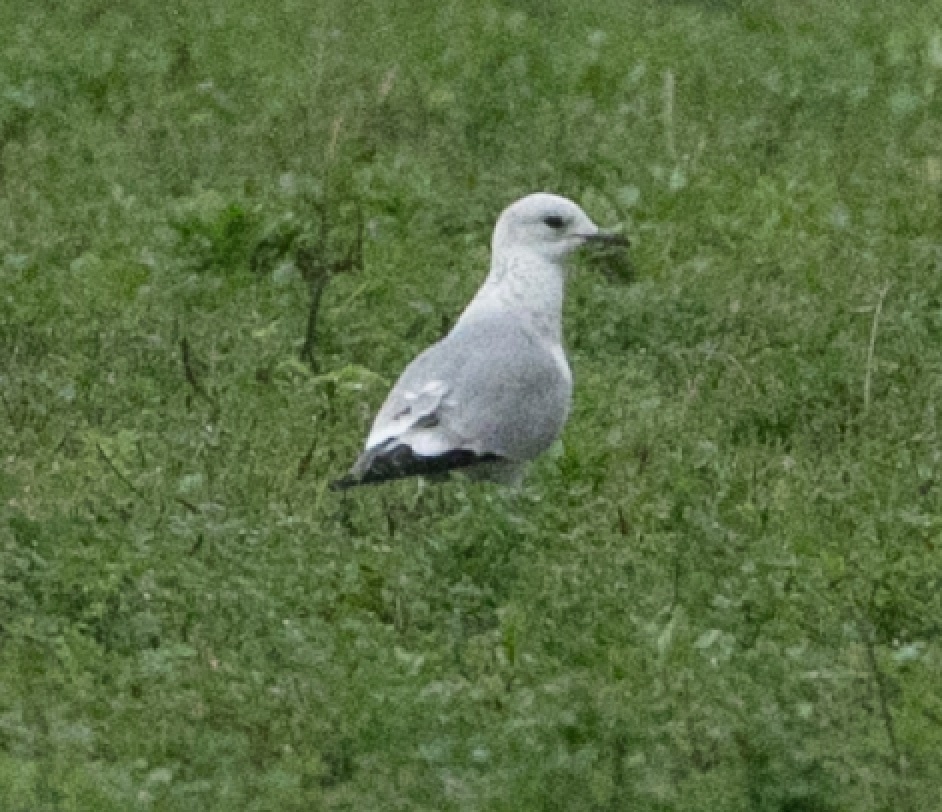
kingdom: Animalia
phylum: Chordata
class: Aves
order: Charadriiformes
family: Laridae
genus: Larus
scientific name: Larus canus
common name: Mew gull
